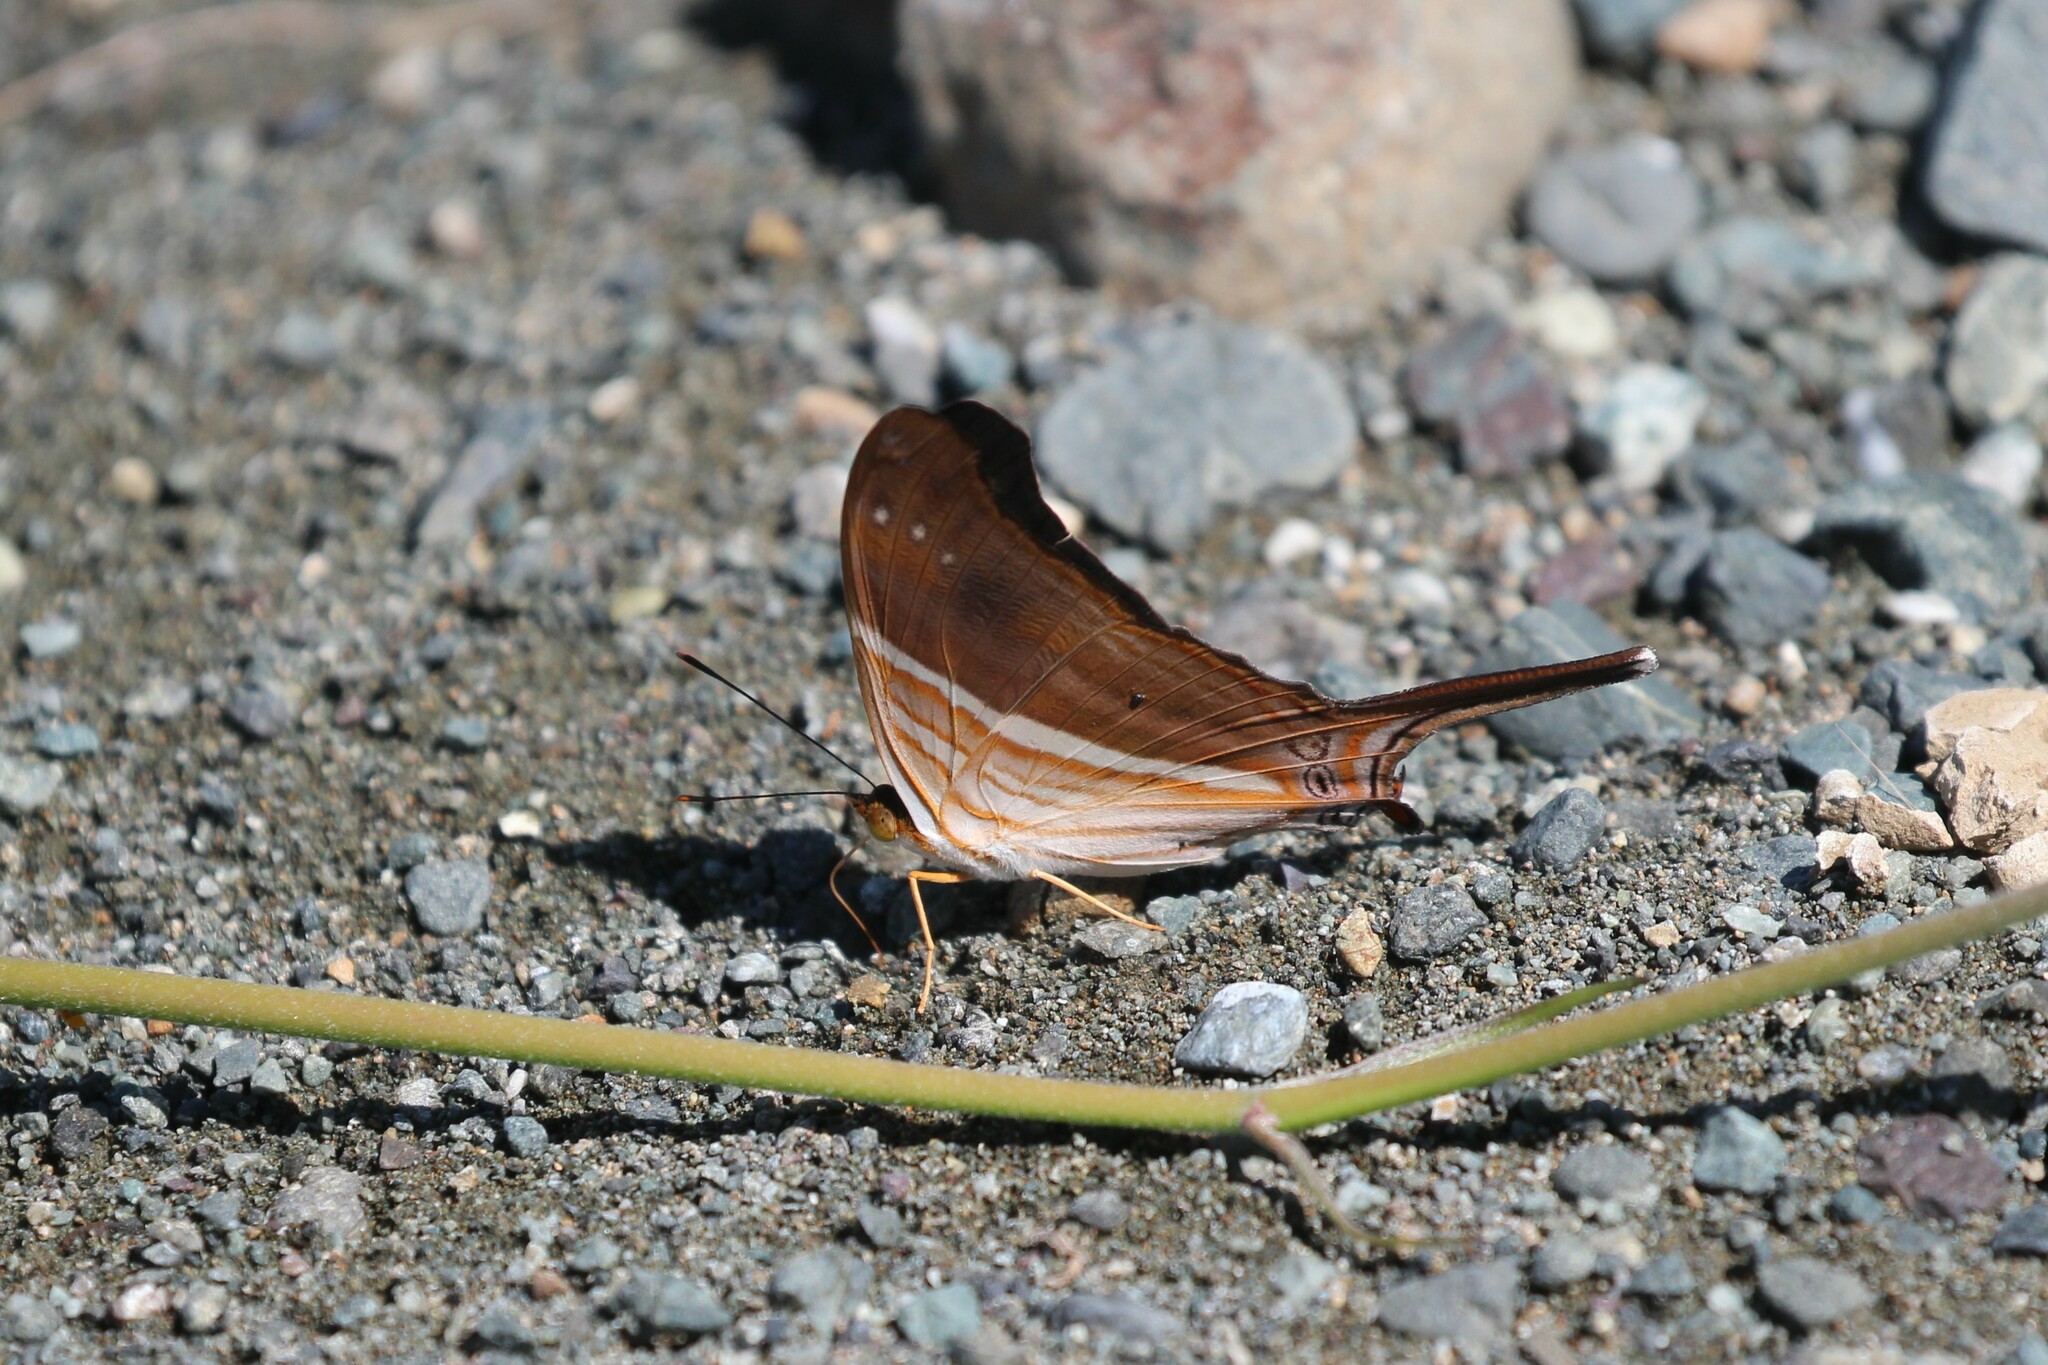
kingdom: Animalia
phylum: Arthropoda
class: Insecta
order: Lepidoptera
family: Nymphalidae
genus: Marpesia
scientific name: Marpesia chiron
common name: Many-banded daggerwing
